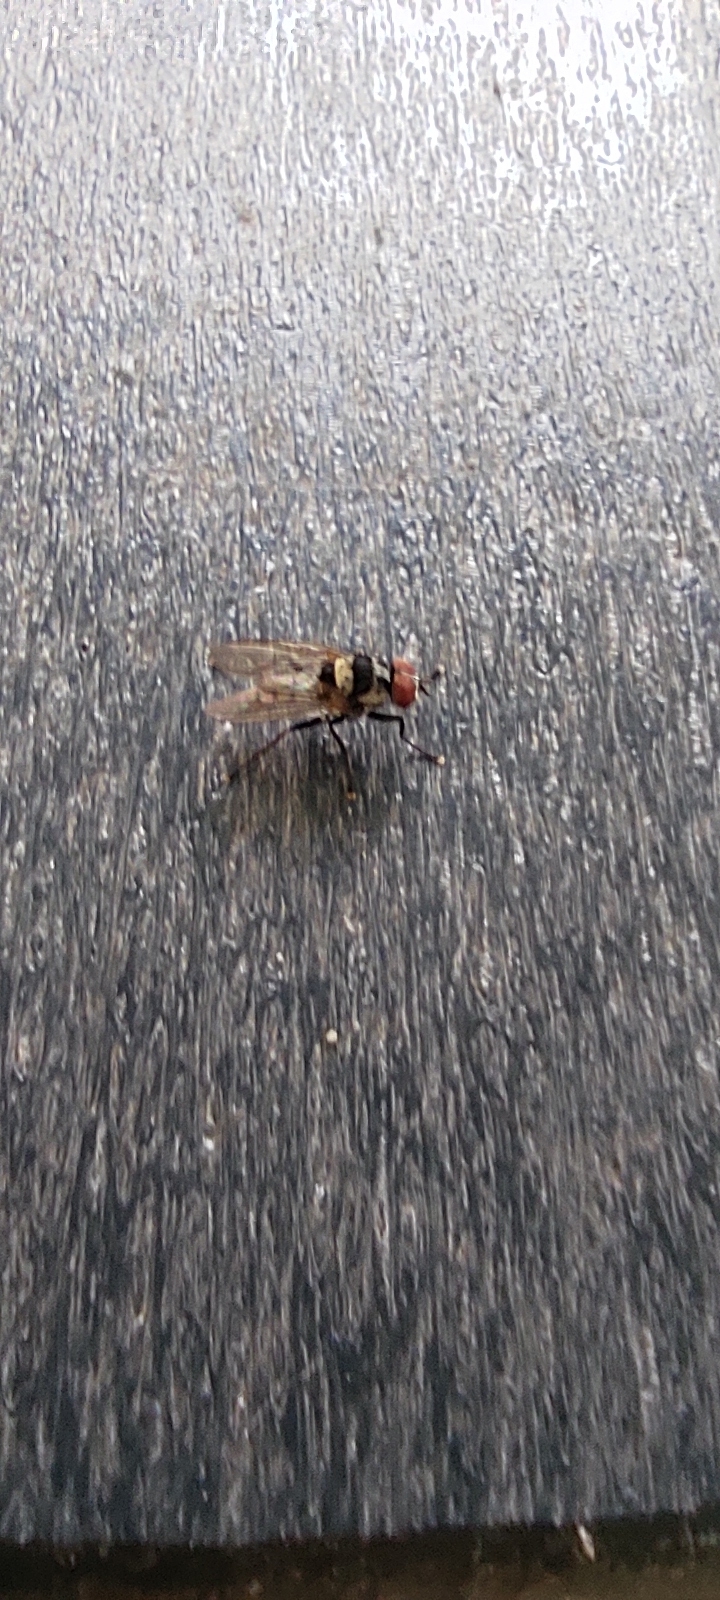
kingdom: Animalia
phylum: Arthropoda
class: Insecta
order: Diptera
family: Anthomyiidae
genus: Anthomyia
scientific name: Anthomyia oculifera
